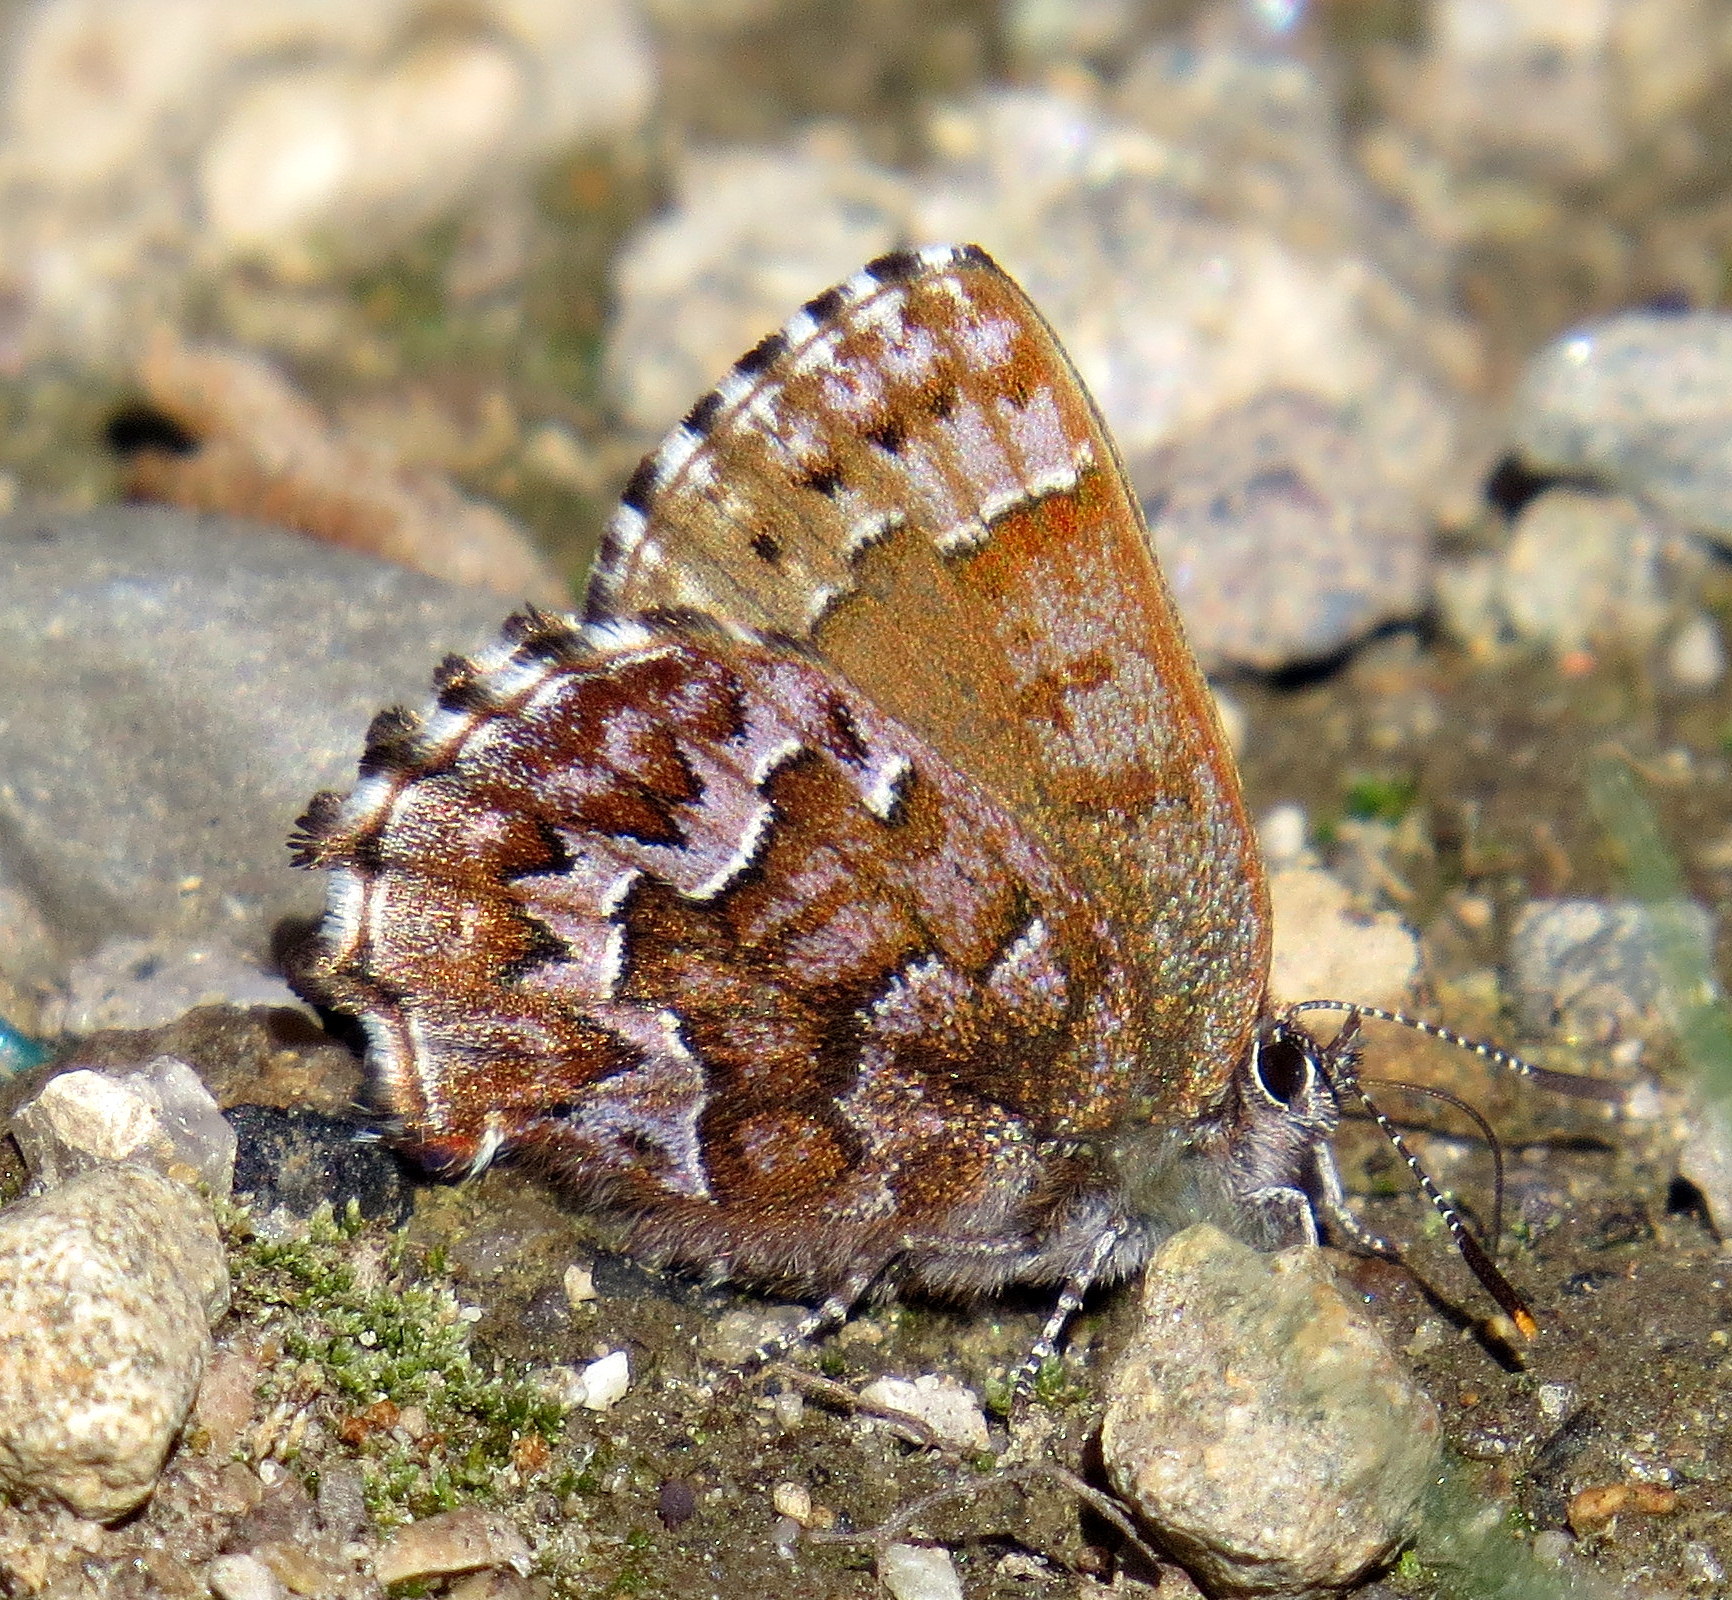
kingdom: Animalia
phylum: Arthropoda
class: Insecta
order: Lepidoptera
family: Lycaenidae
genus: Incisalia
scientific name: Incisalia niphon
